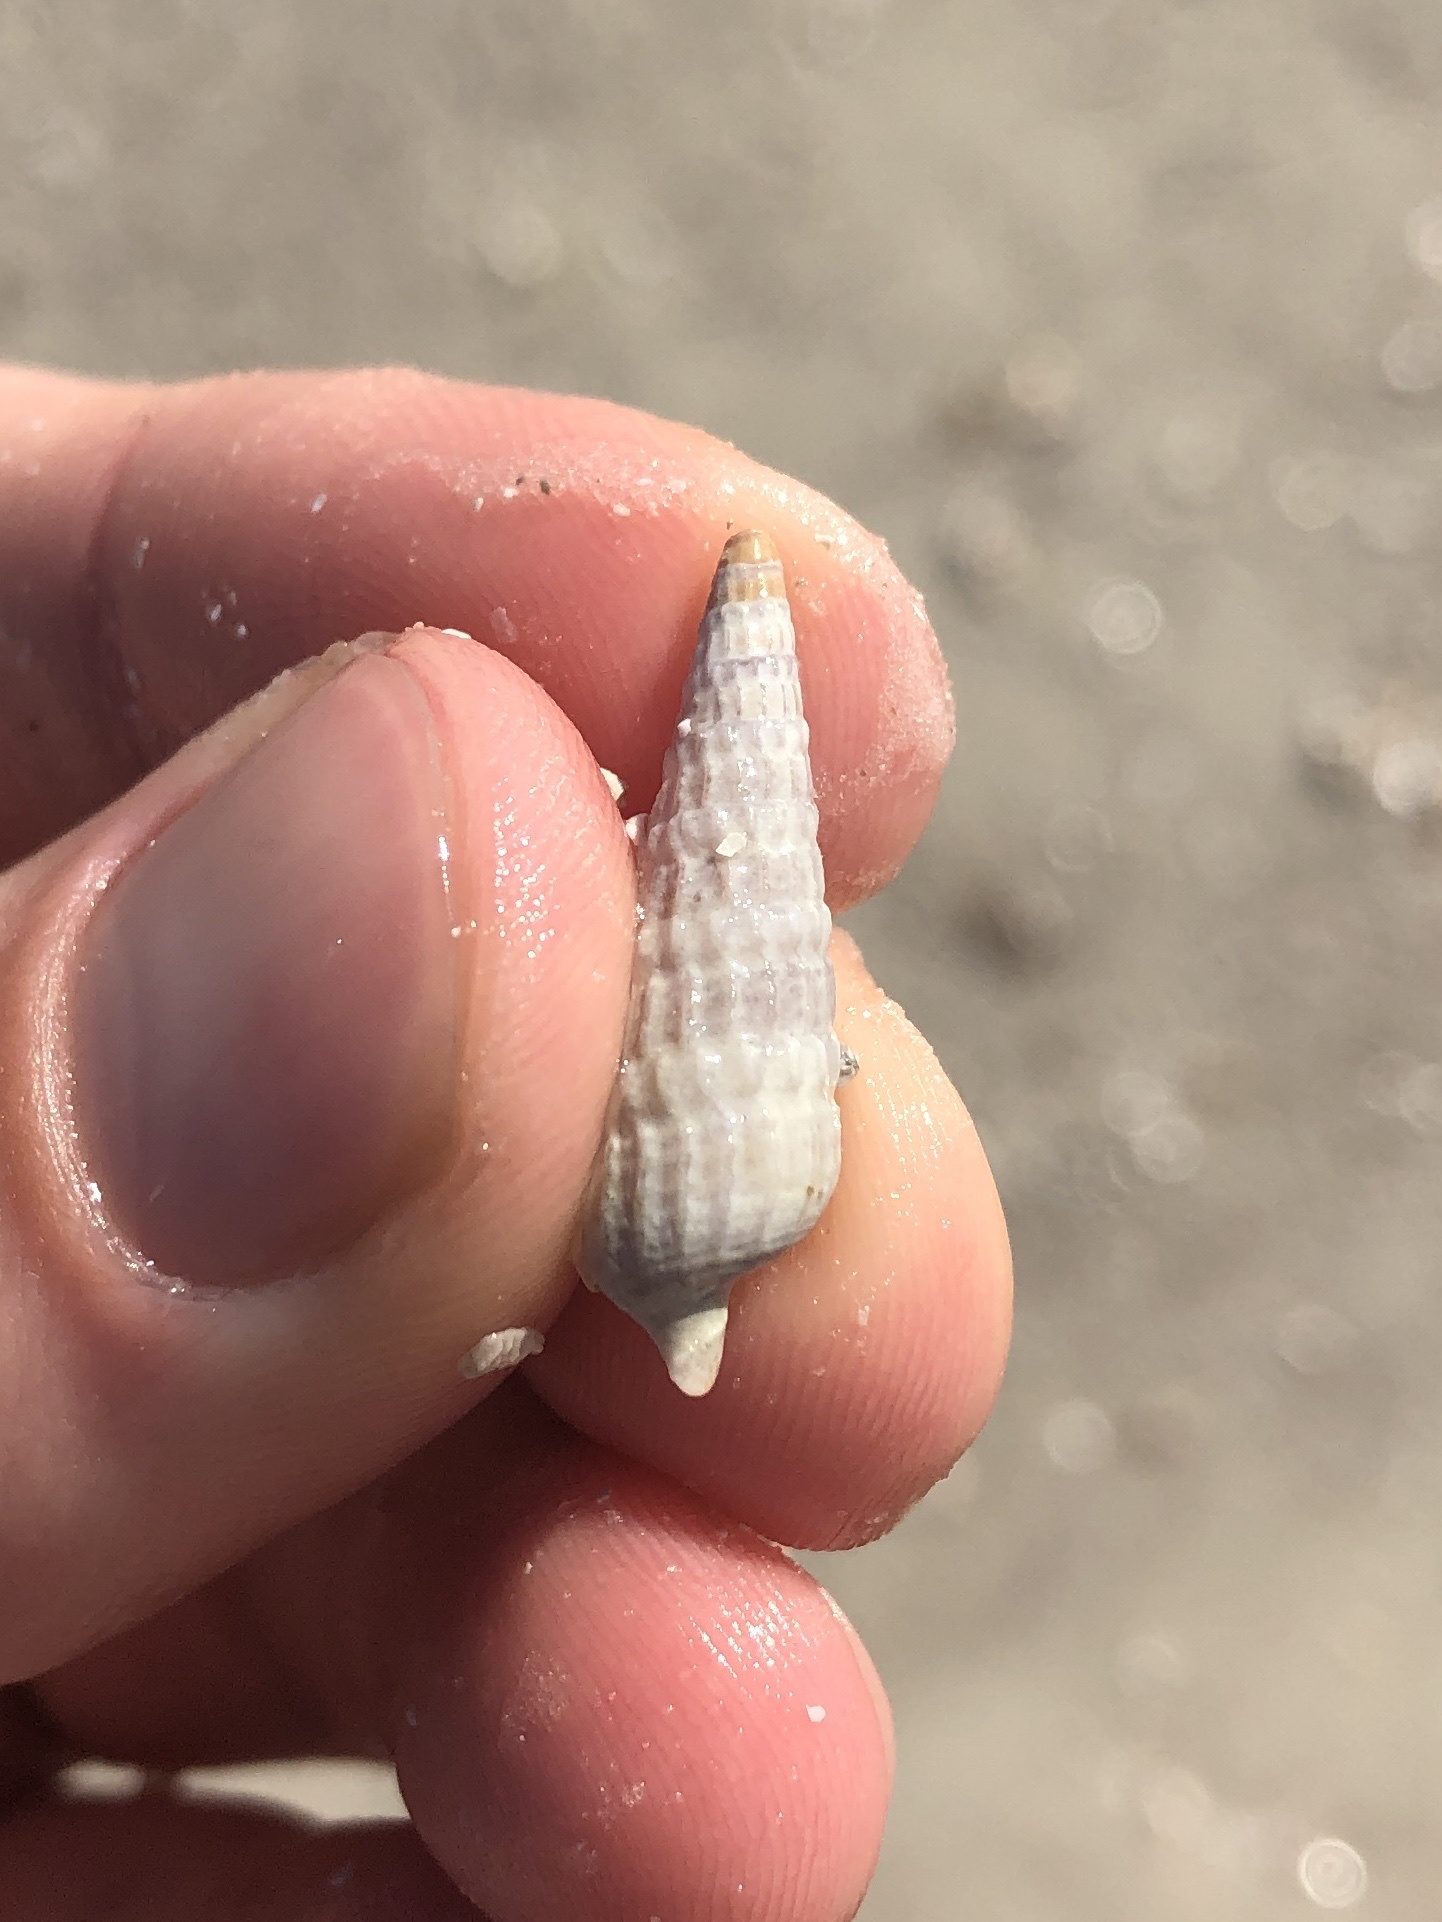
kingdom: Animalia
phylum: Mollusca
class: Gastropoda
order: Neogastropoda
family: Terebridae
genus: Neoterebra
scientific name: Neoterebra dislocata
